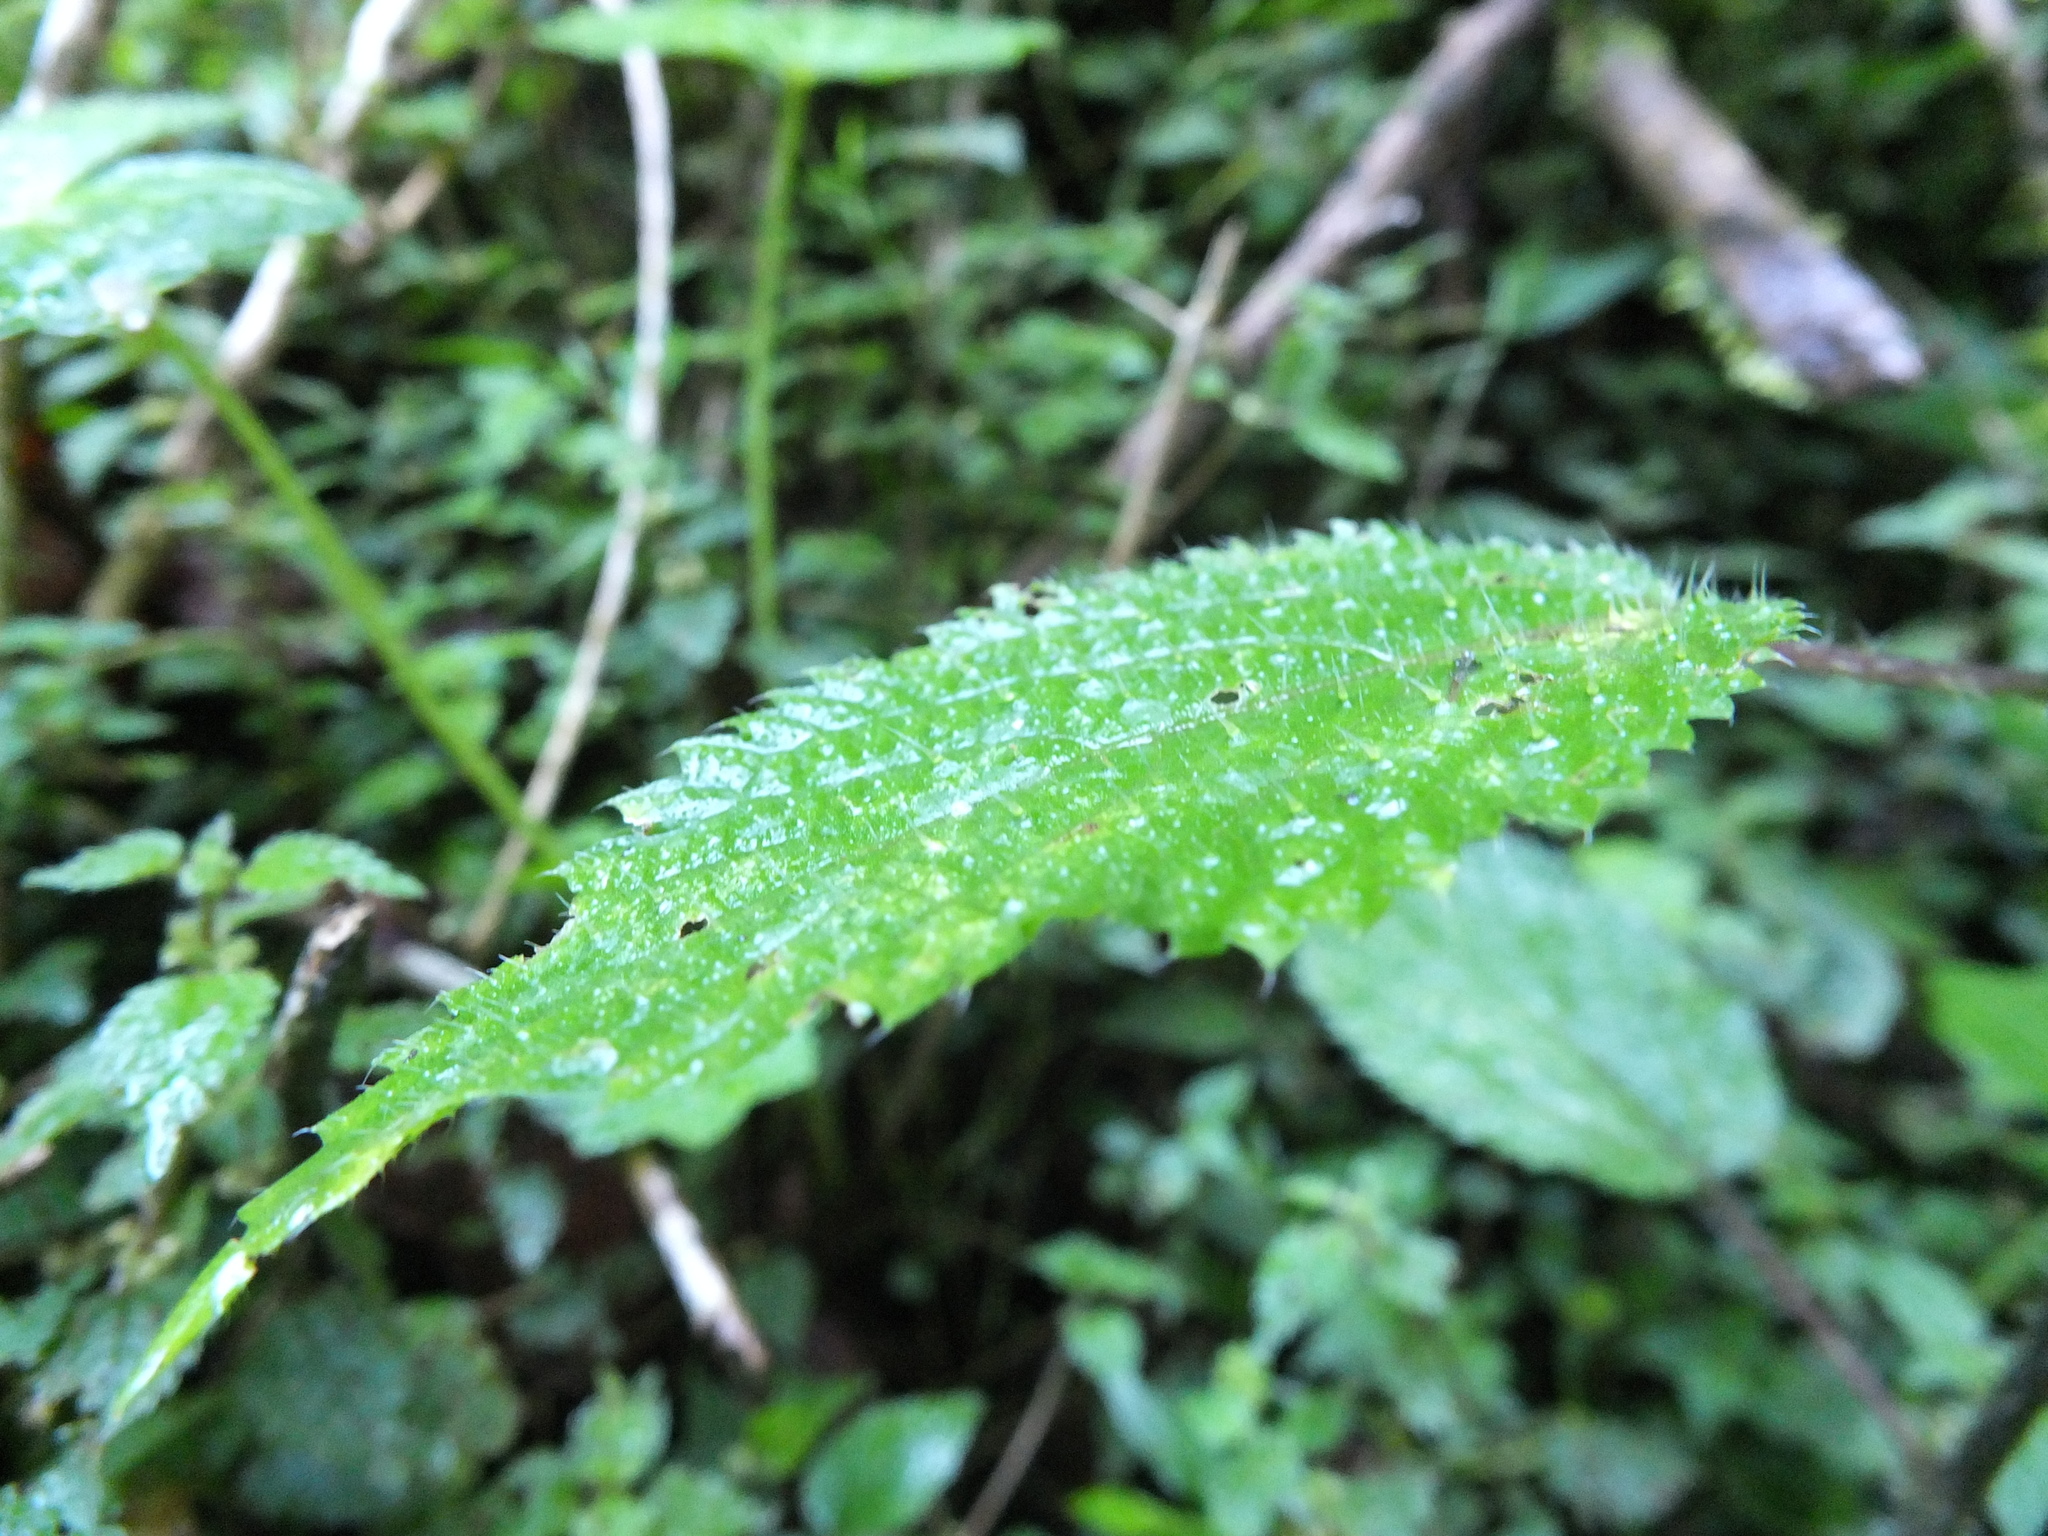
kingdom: Plantae
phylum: Tracheophyta
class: Magnoliopsida
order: Rosales
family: Urticaceae
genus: Laportea
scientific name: Laportea bulbifera
